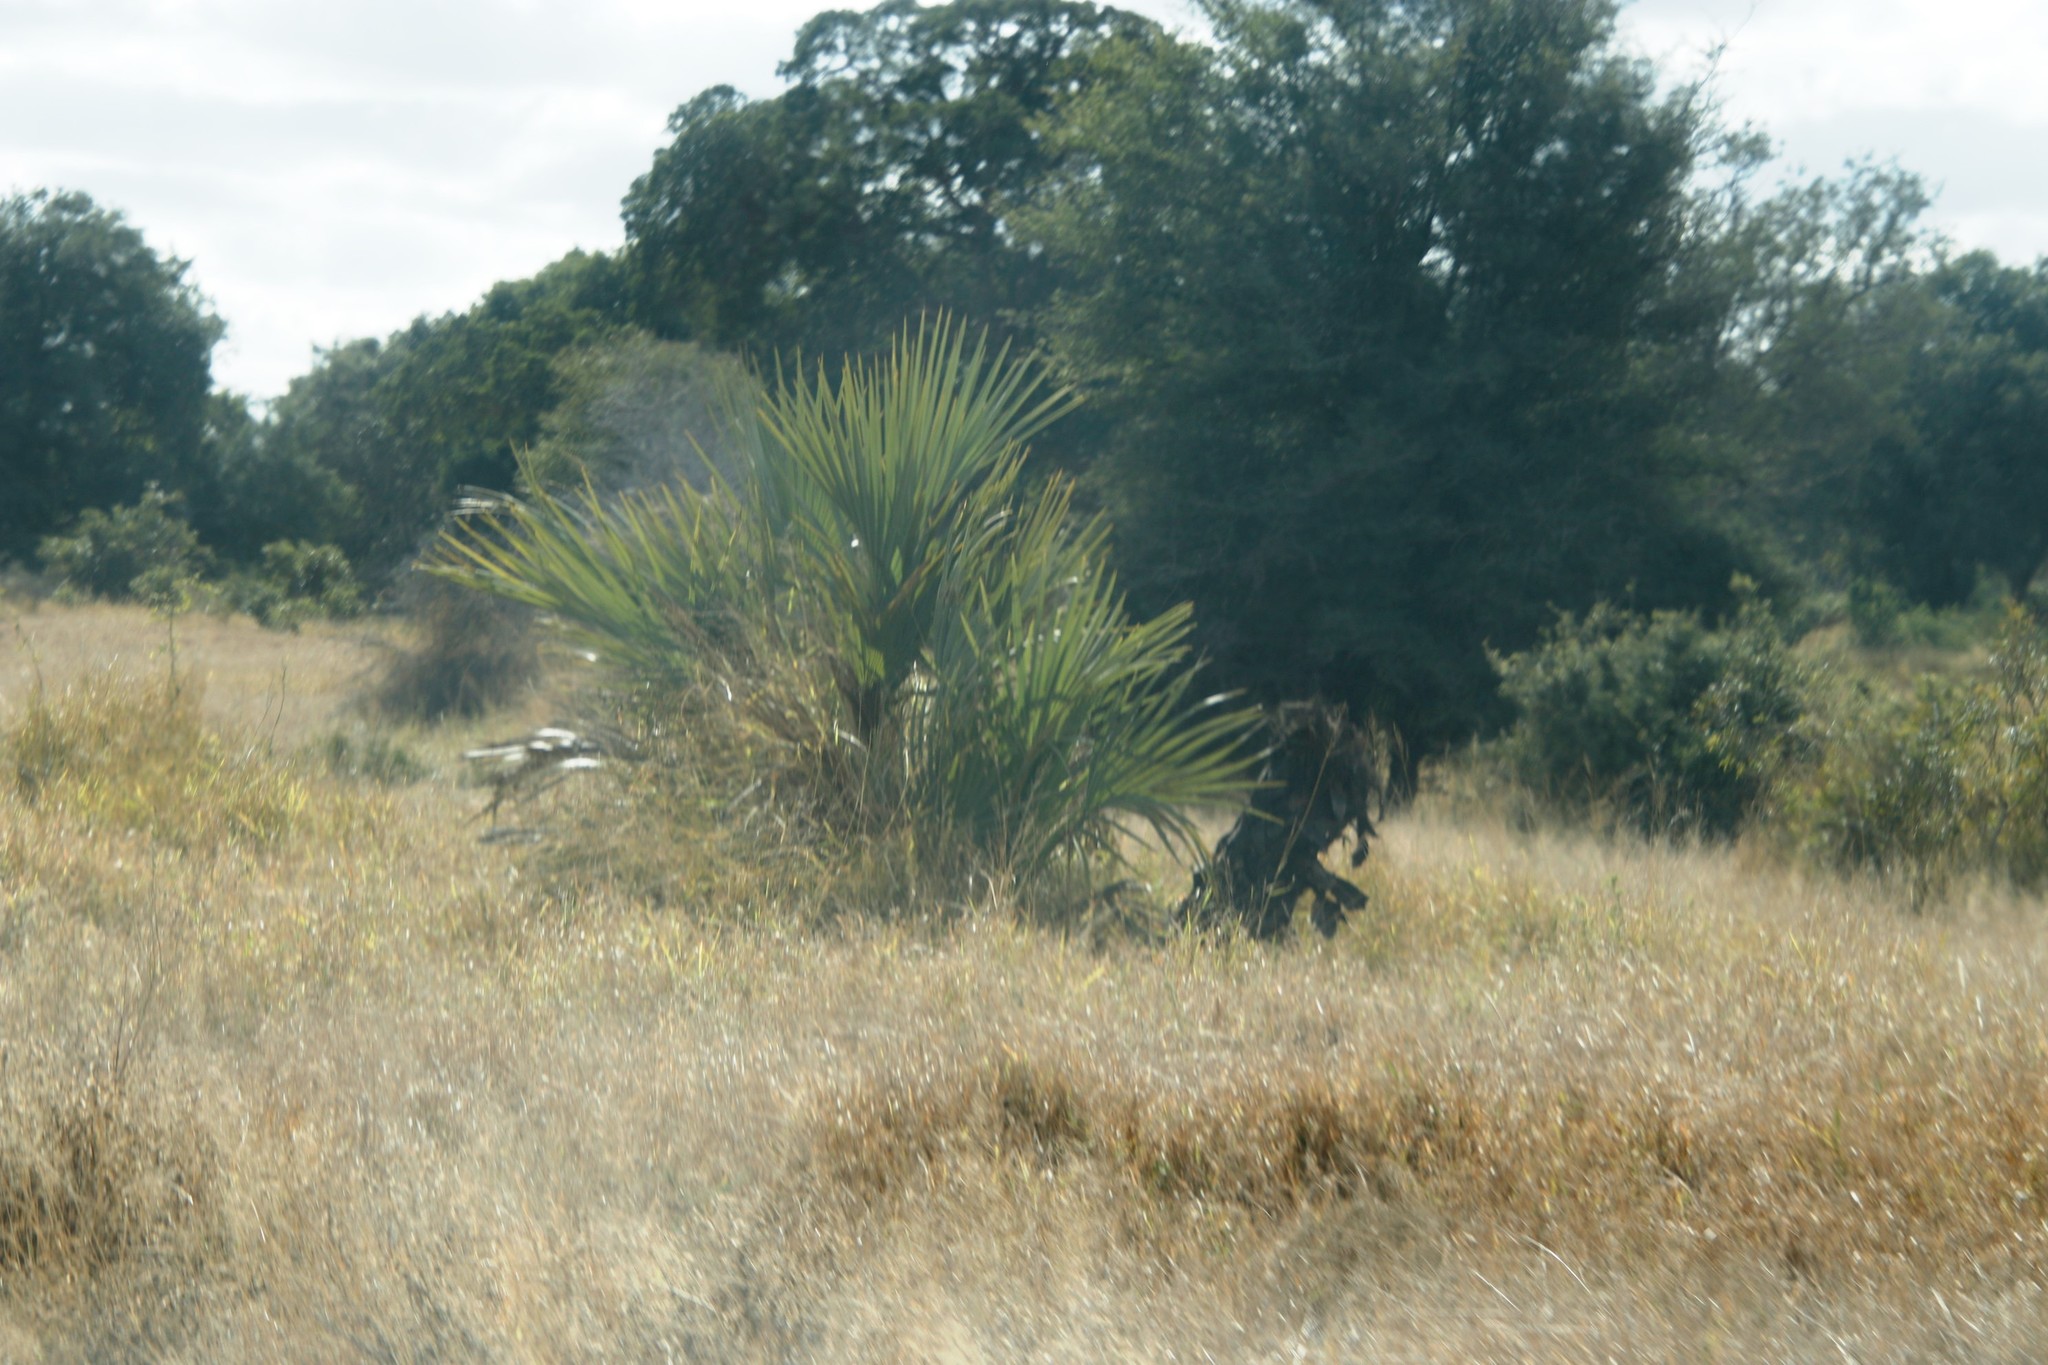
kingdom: Plantae
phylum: Tracheophyta
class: Liliopsida
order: Arecales
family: Arecaceae
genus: Hyphaene
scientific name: Hyphaene coriacea
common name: Ilala palm
